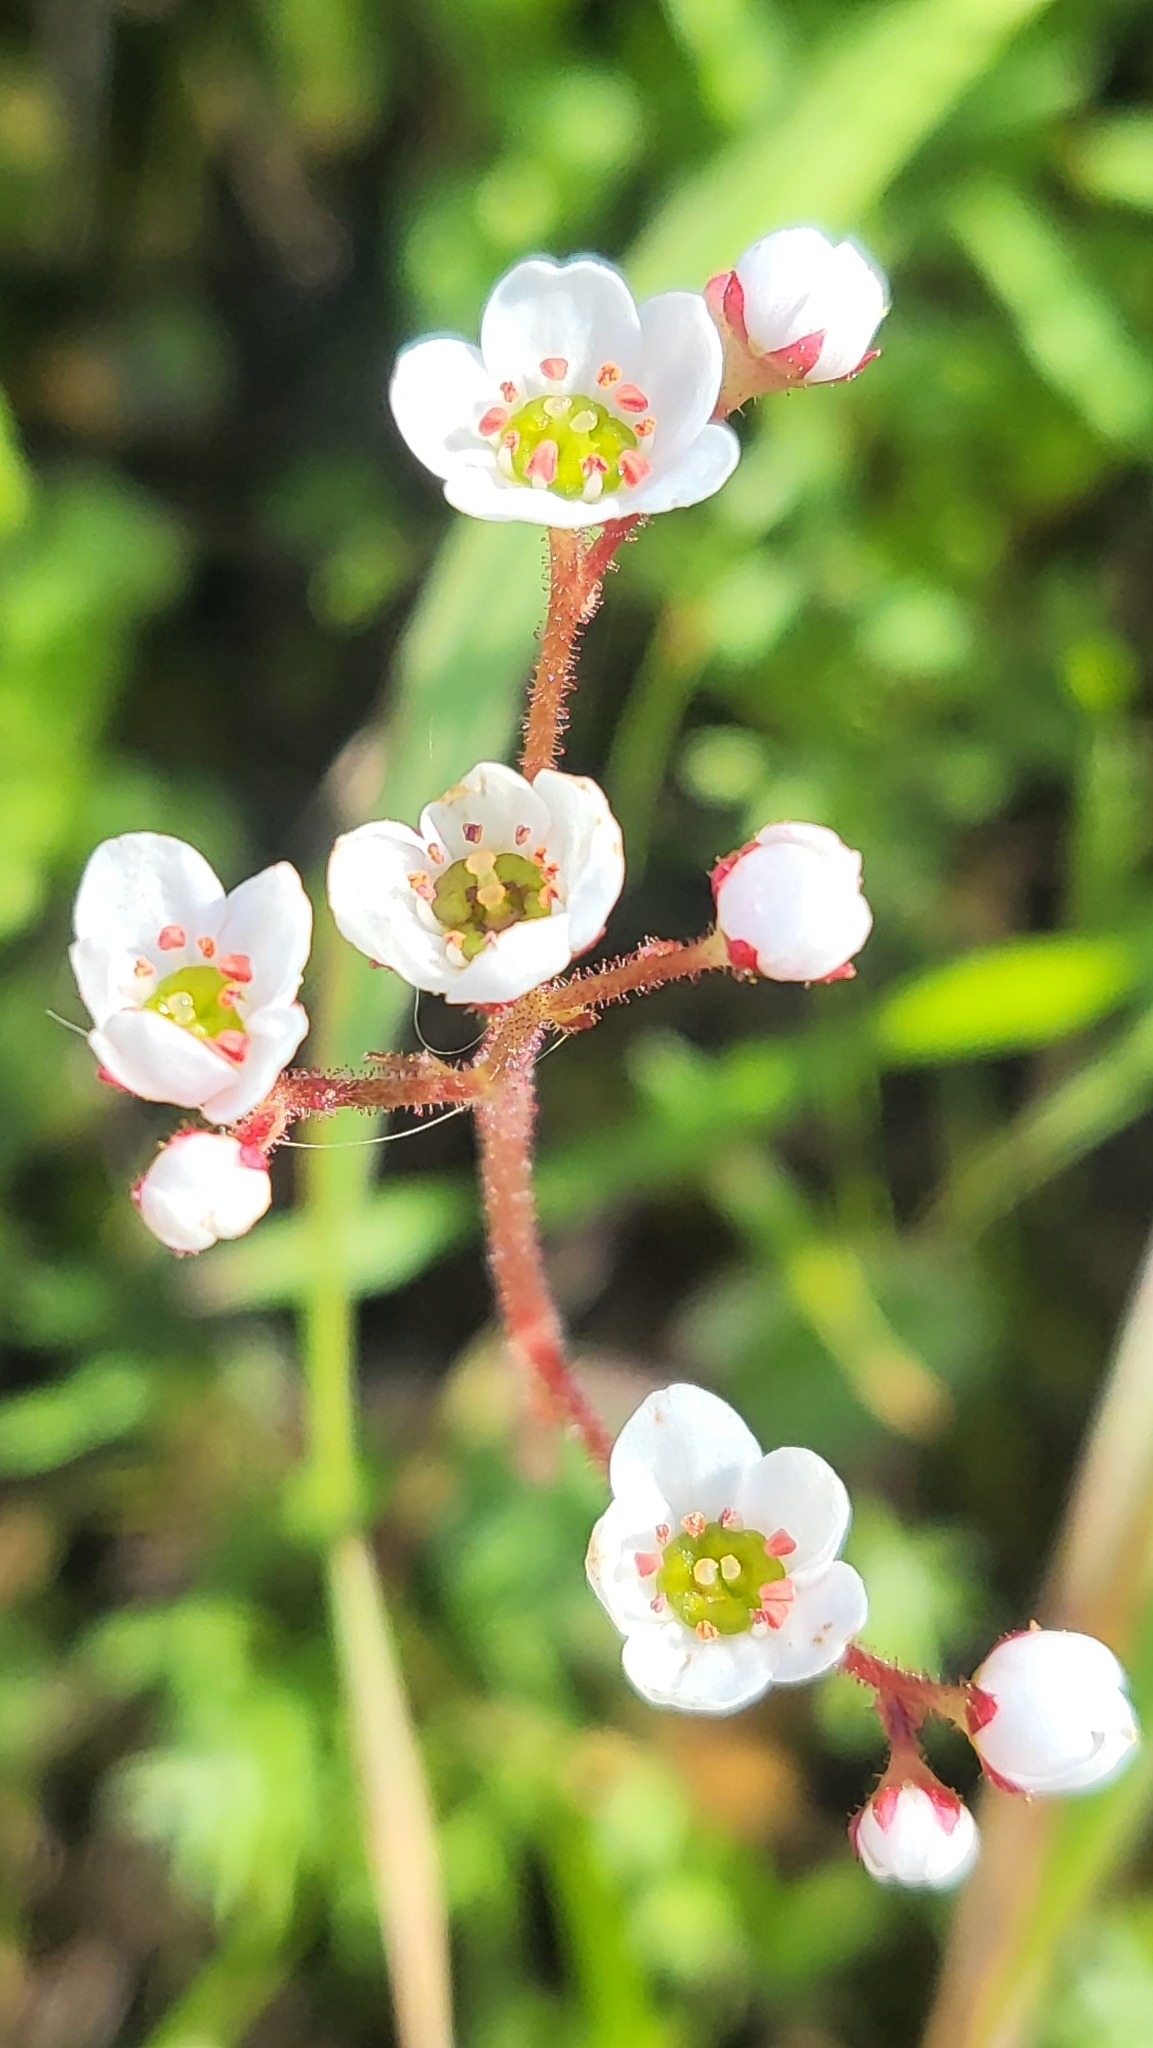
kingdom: Plantae
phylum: Tracheophyta
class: Magnoliopsida
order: Saxifragales
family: Saxifragaceae
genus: Micranthes
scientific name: Micranthes californica
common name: California saxifrage
